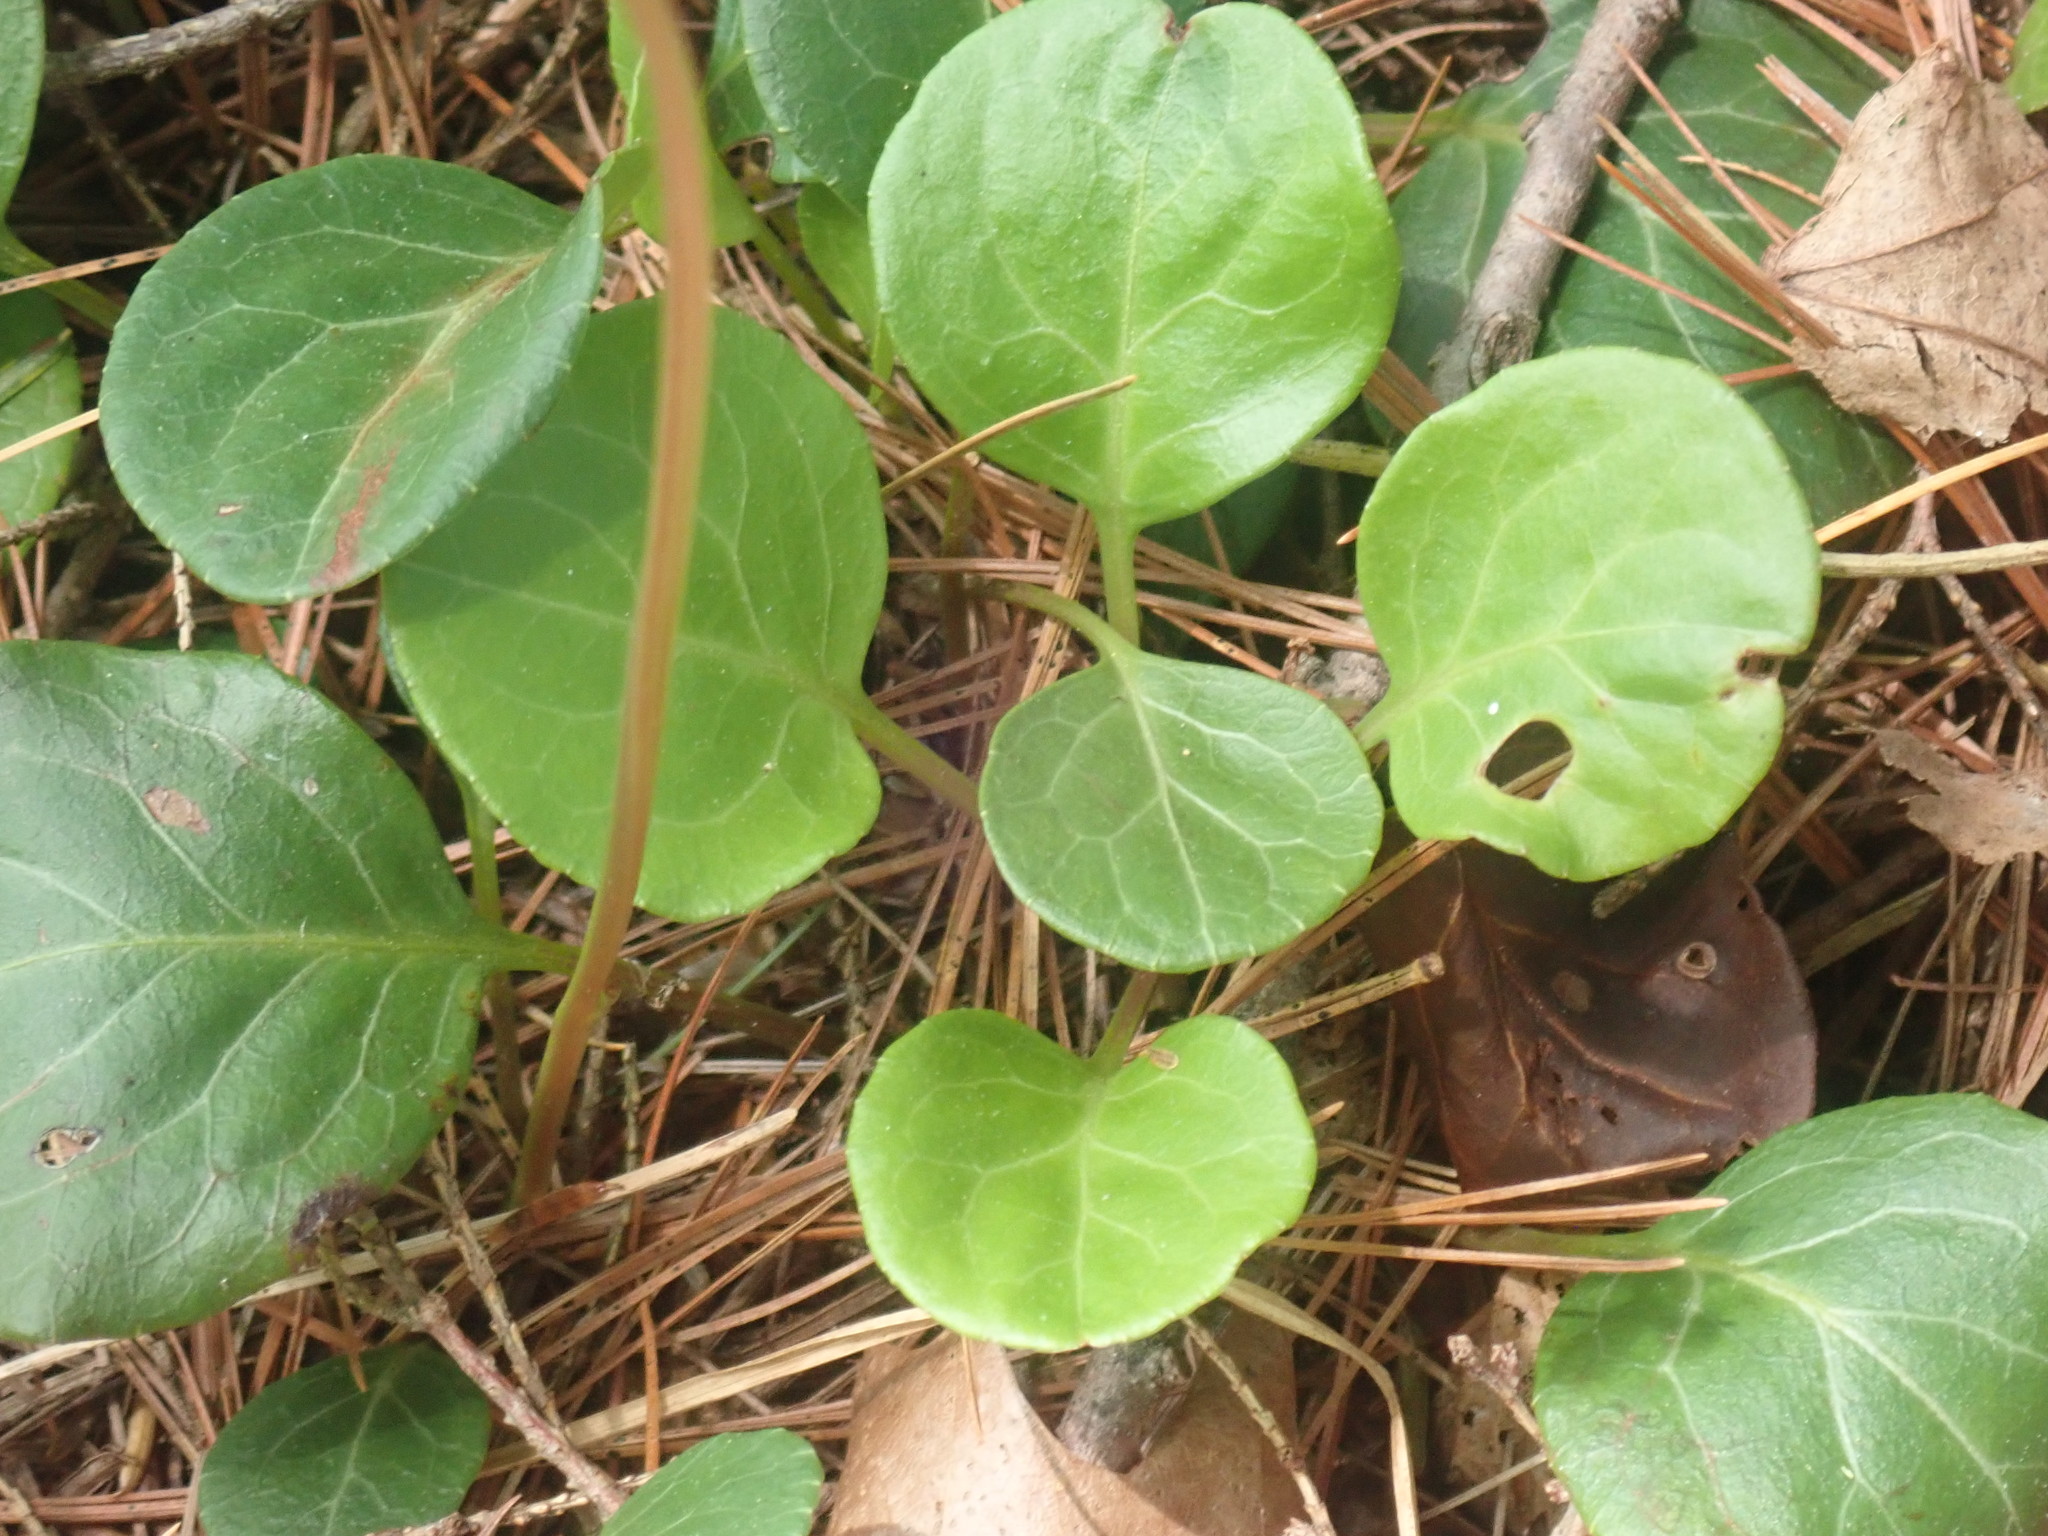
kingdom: Plantae
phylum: Tracheophyta
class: Magnoliopsida
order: Ericales
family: Ericaceae
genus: Pyrola
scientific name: Pyrola chlorantha
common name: Green wintergreen
